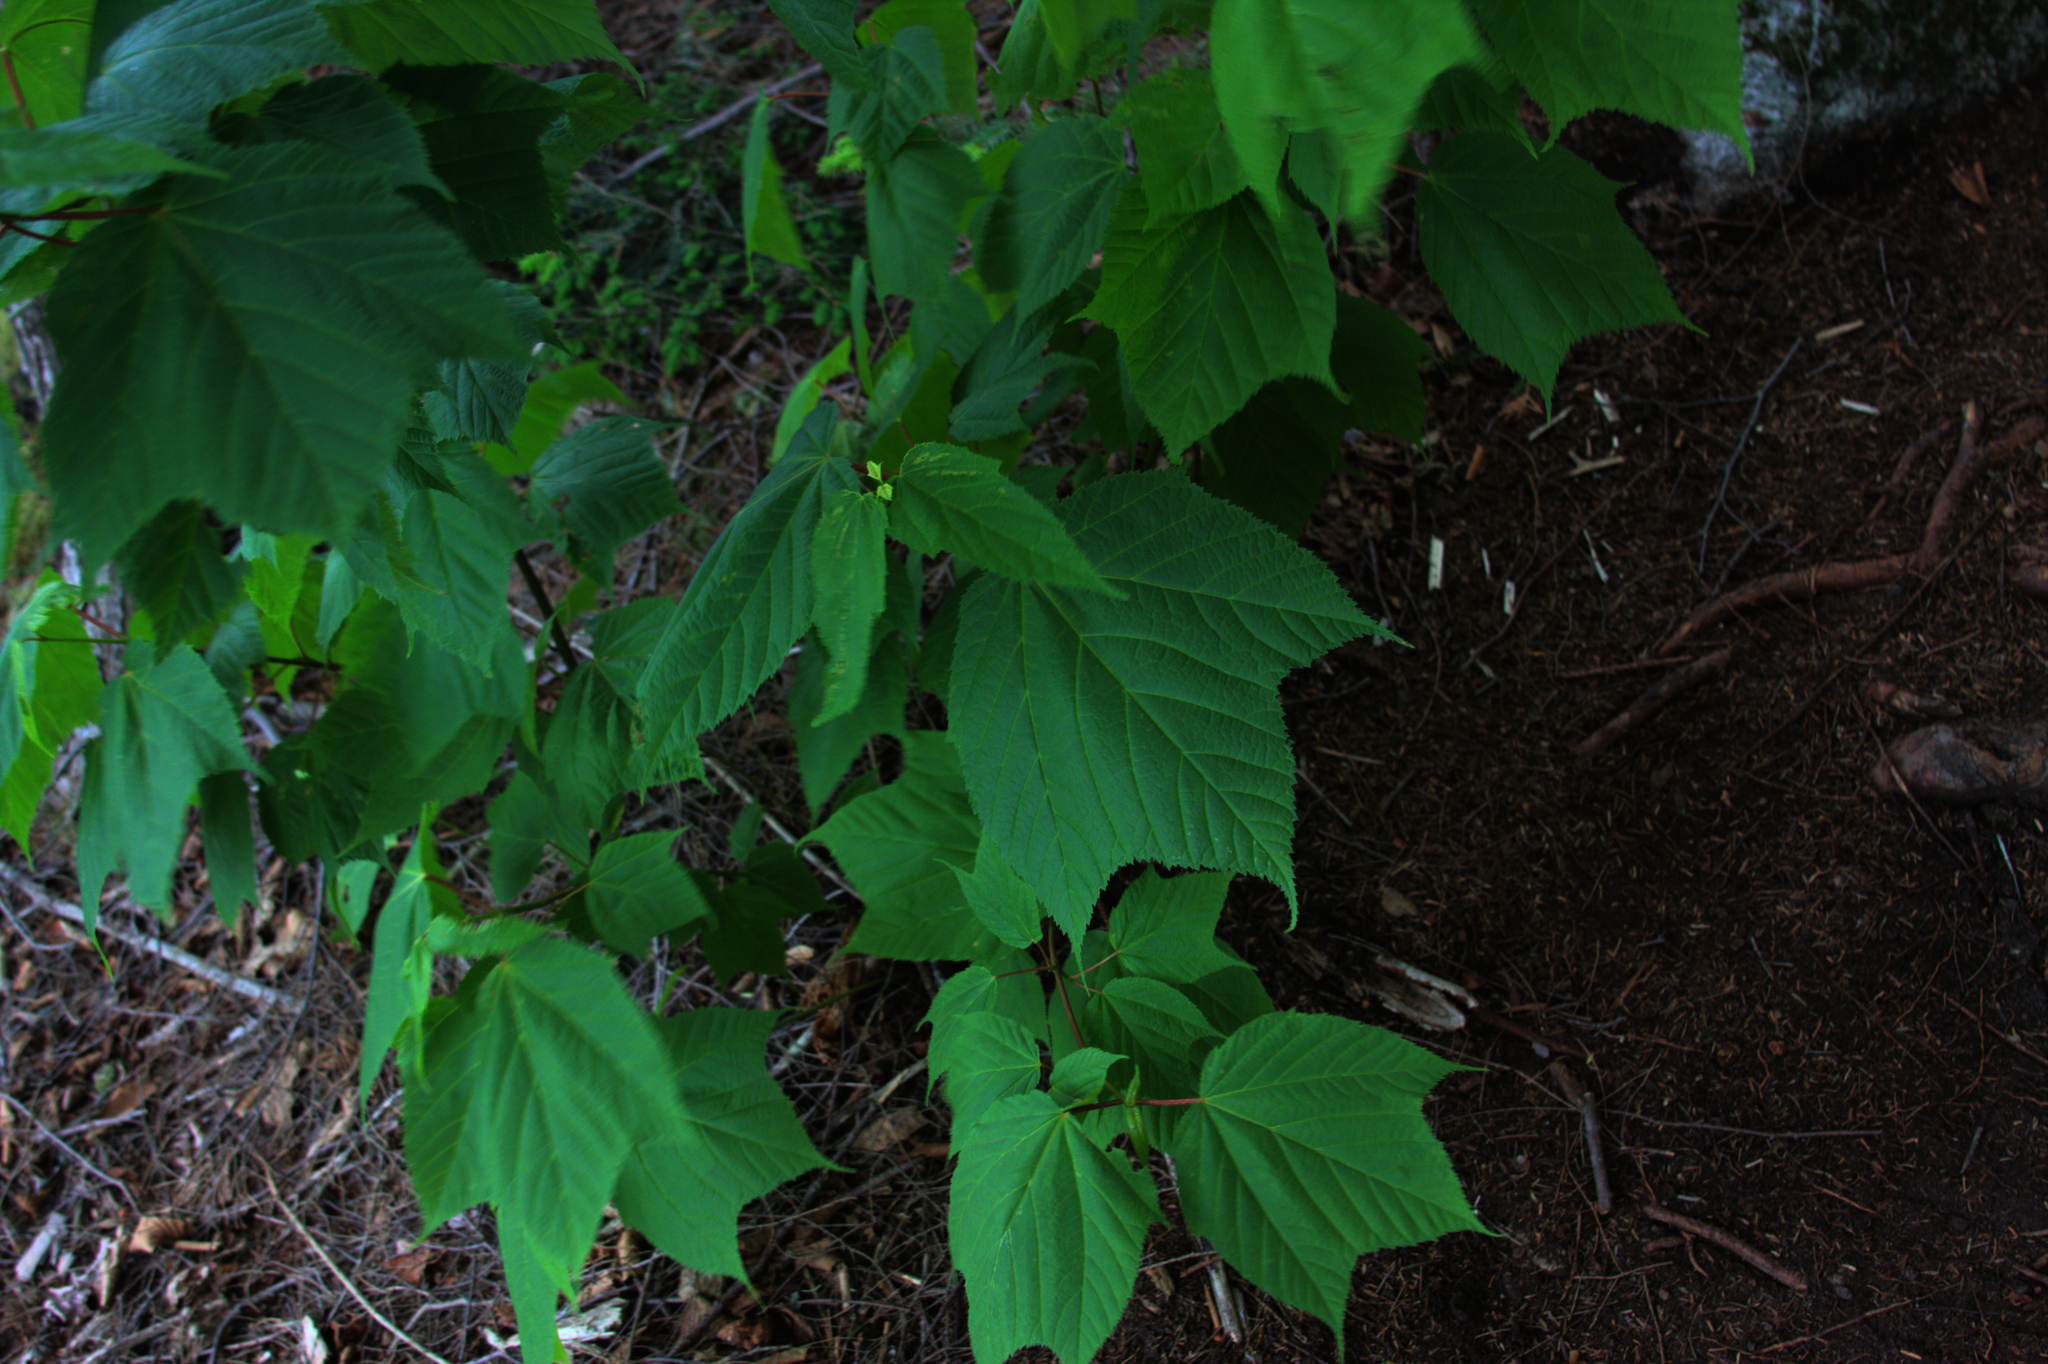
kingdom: Plantae
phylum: Tracheophyta
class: Magnoliopsida
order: Sapindales
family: Sapindaceae
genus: Acer
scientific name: Acer pensylvanicum
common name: Moosewood
